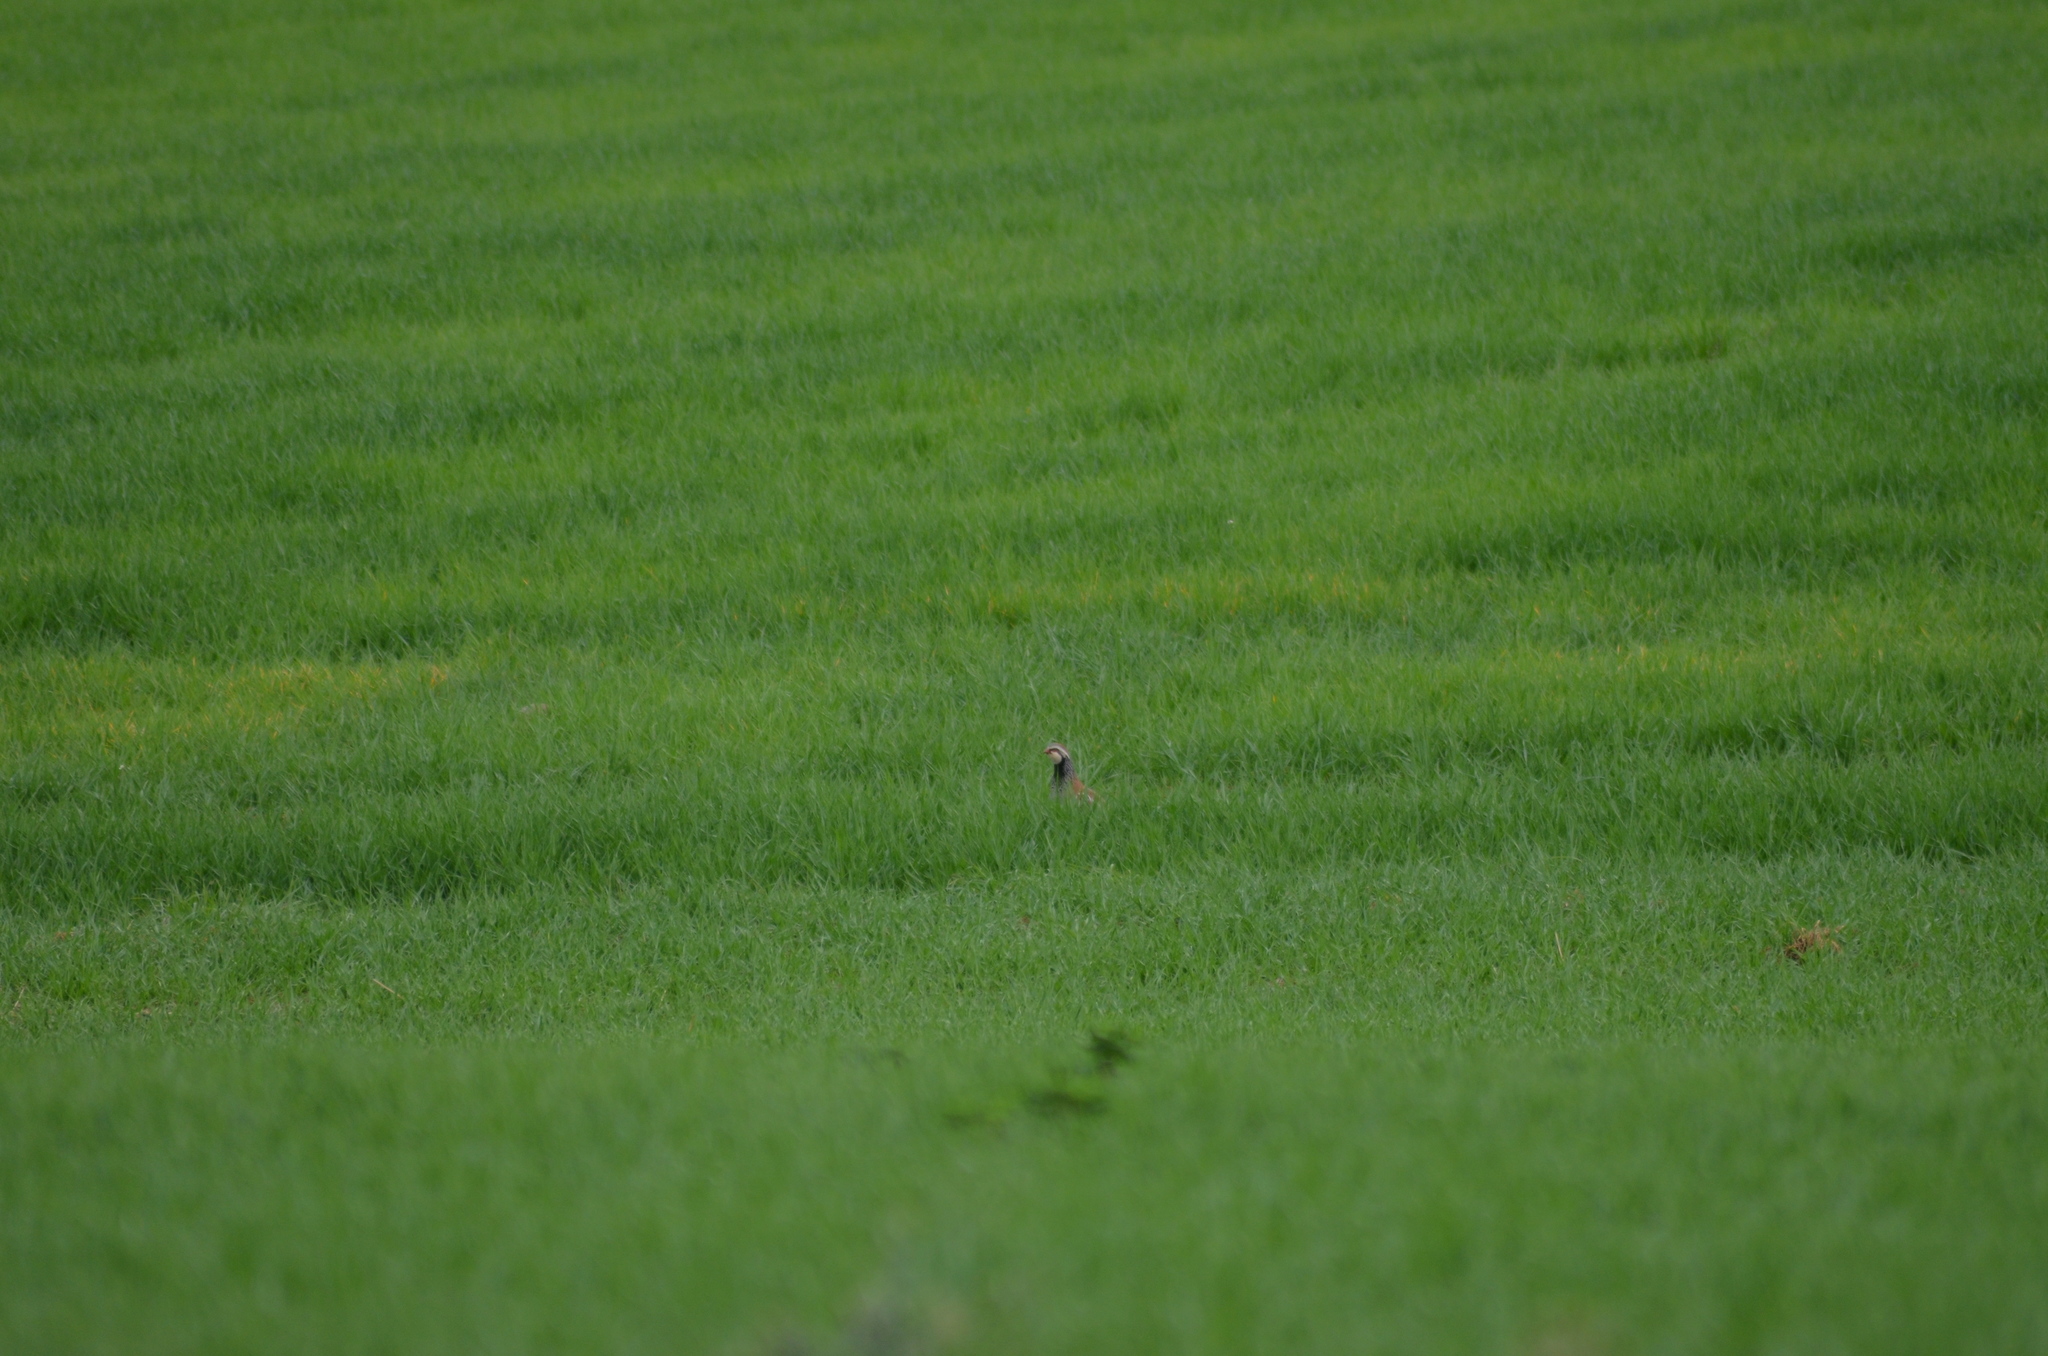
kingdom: Animalia
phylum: Chordata
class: Aves
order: Galliformes
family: Phasianidae
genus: Alectoris
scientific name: Alectoris rufa
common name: Red-legged partridge
